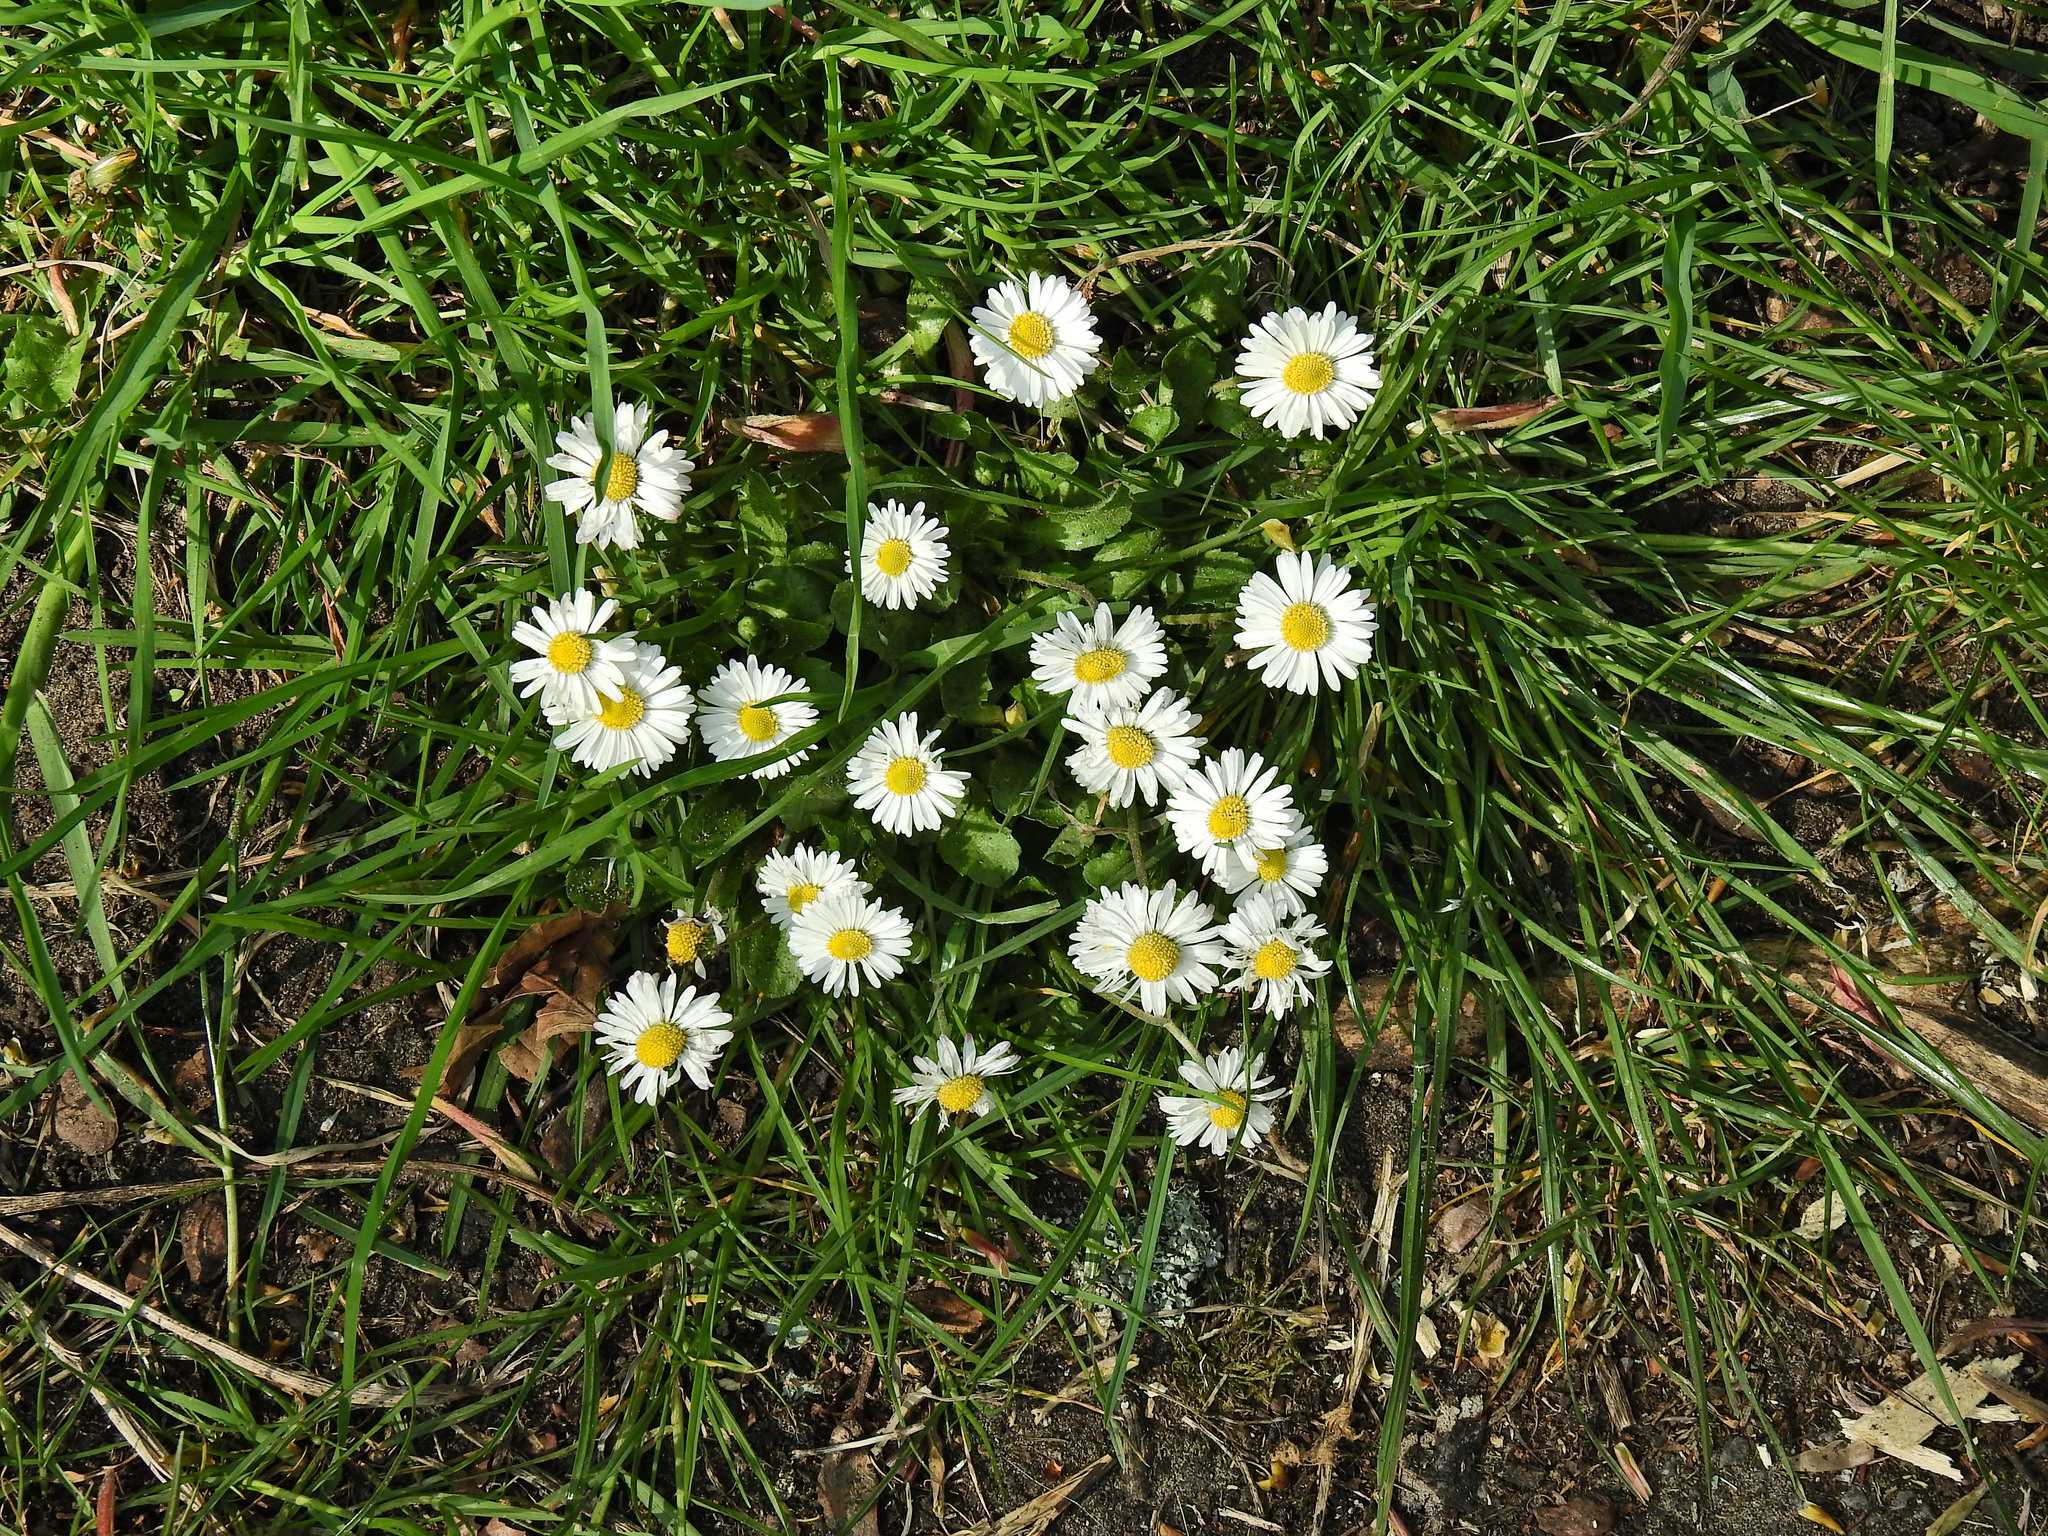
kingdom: Plantae
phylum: Tracheophyta
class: Magnoliopsida
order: Asterales
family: Asteraceae
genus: Bellis
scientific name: Bellis perennis
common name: Lawndaisy
